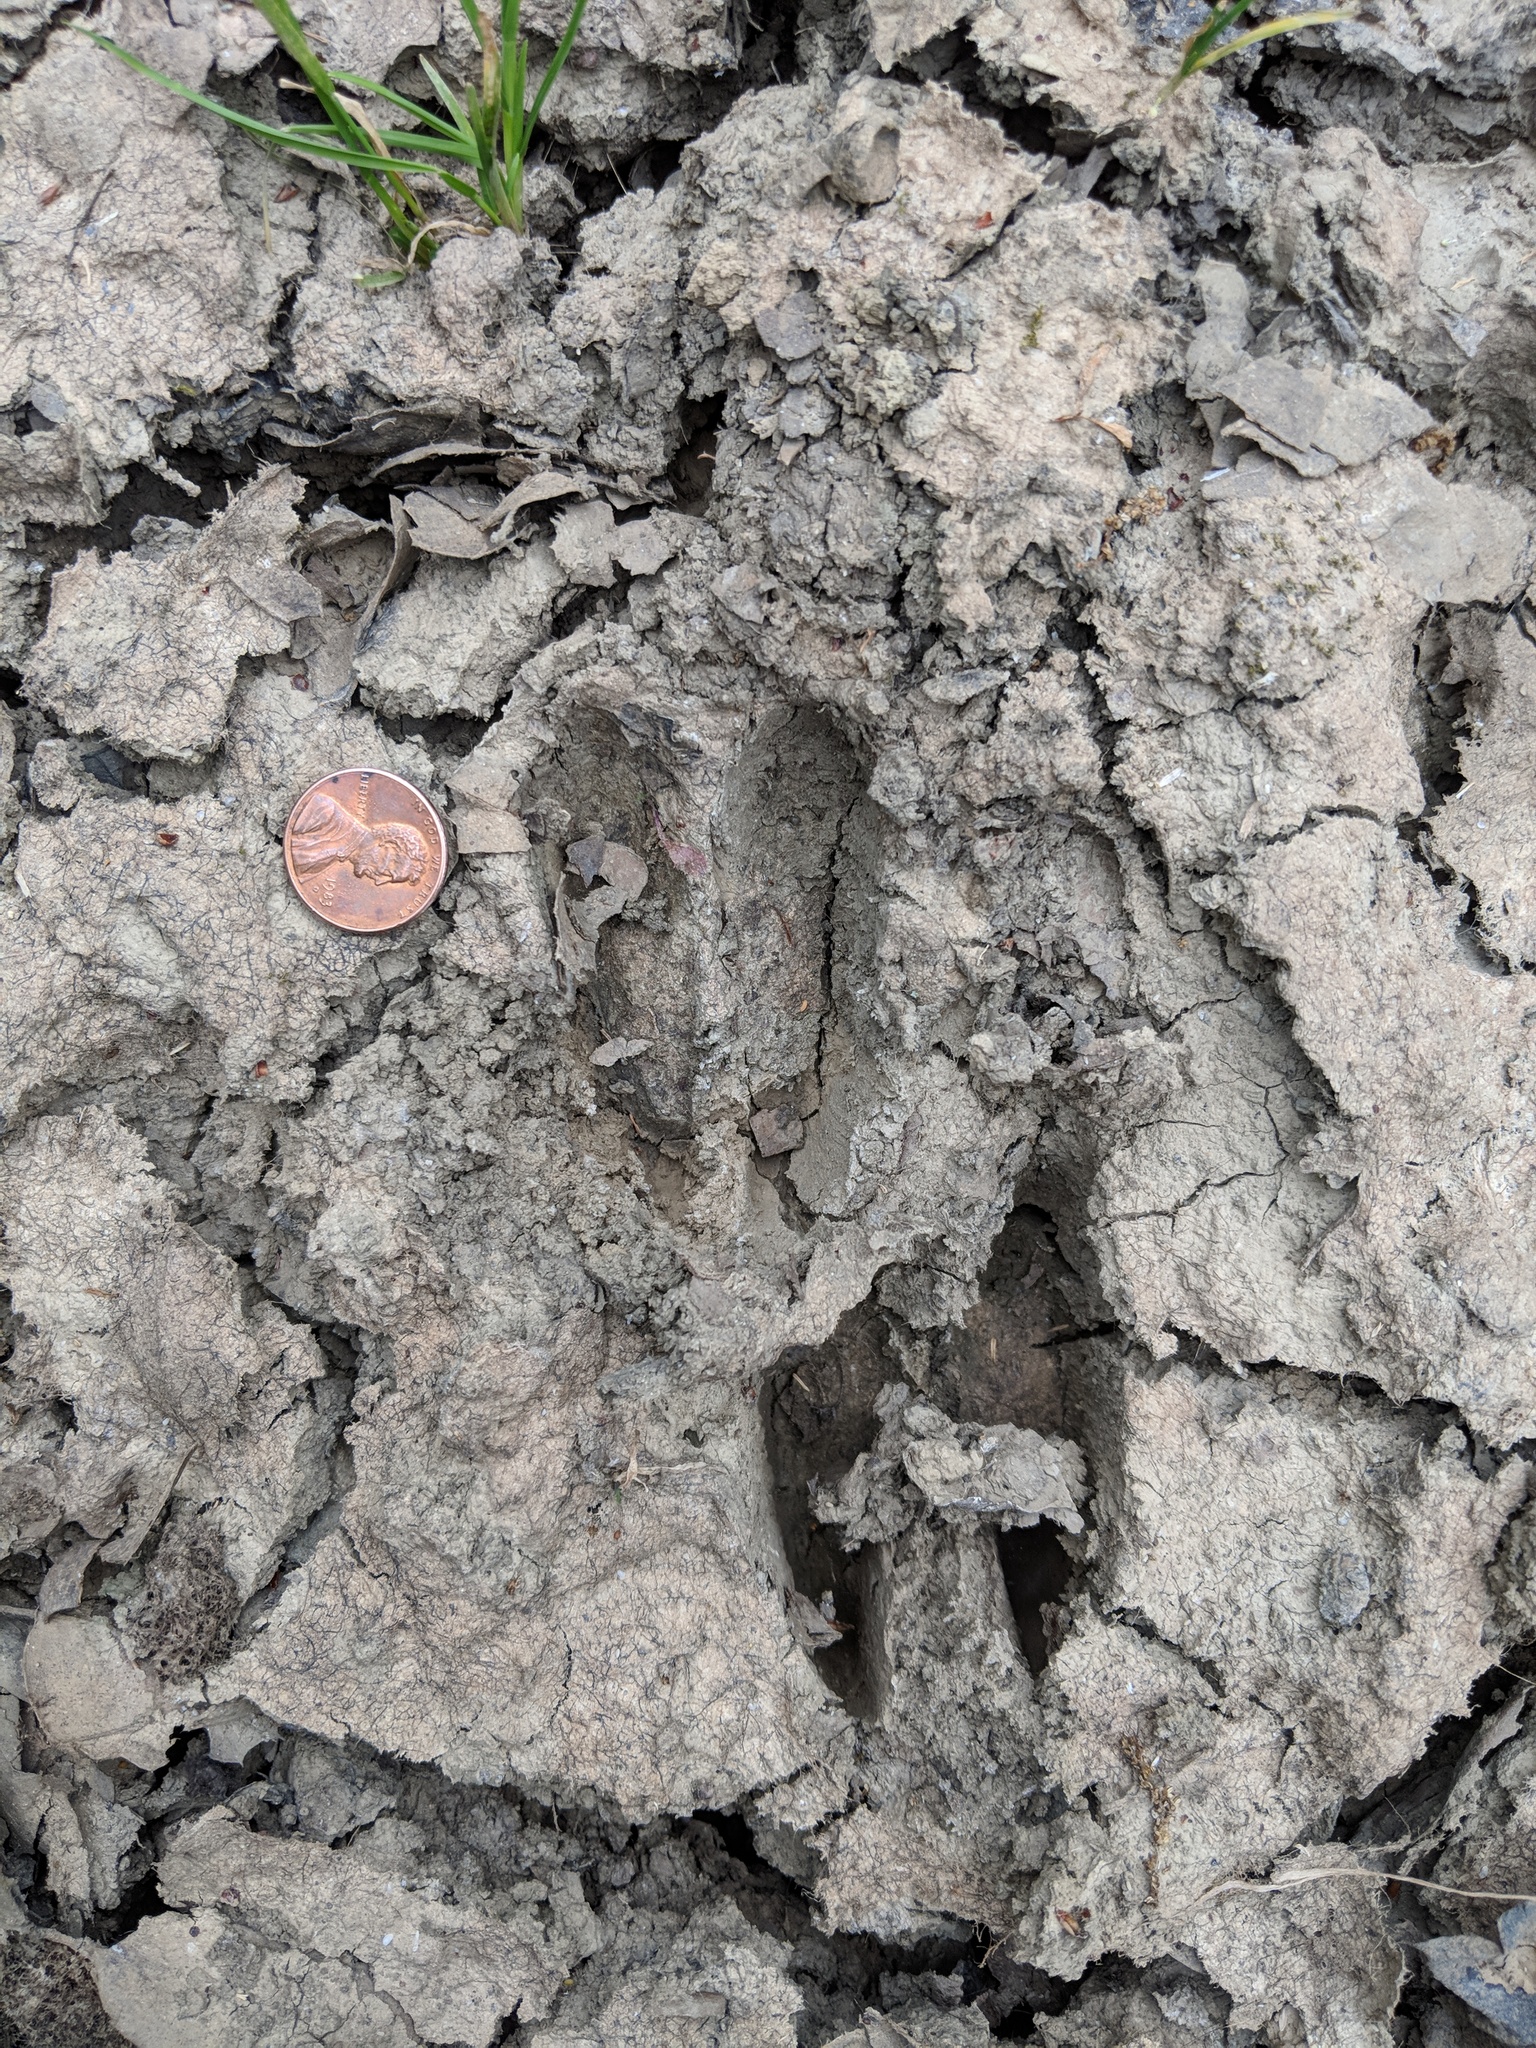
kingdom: Animalia
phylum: Chordata
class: Mammalia
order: Artiodactyla
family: Cervidae
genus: Odocoileus
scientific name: Odocoileus hemionus
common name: Mule deer
